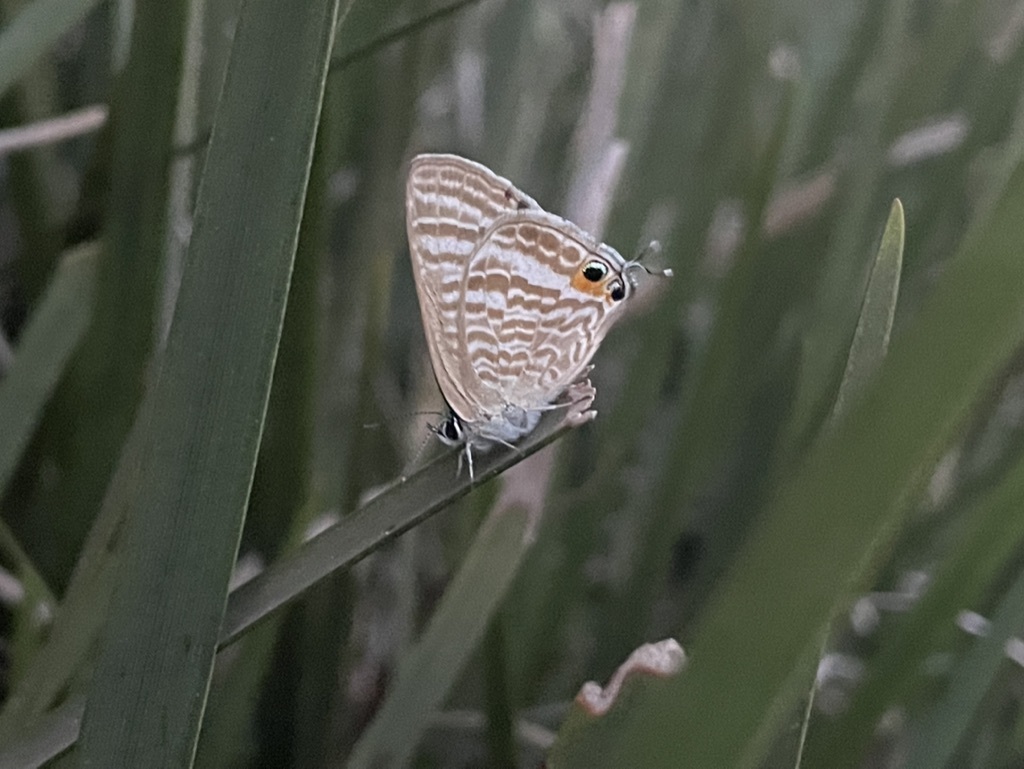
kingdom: Animalia
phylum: Arthropoda
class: Insecta
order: Lepidoptera
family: Lycaenidae
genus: Lampides
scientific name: Lampides boeticus
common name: Long-tailed blue
